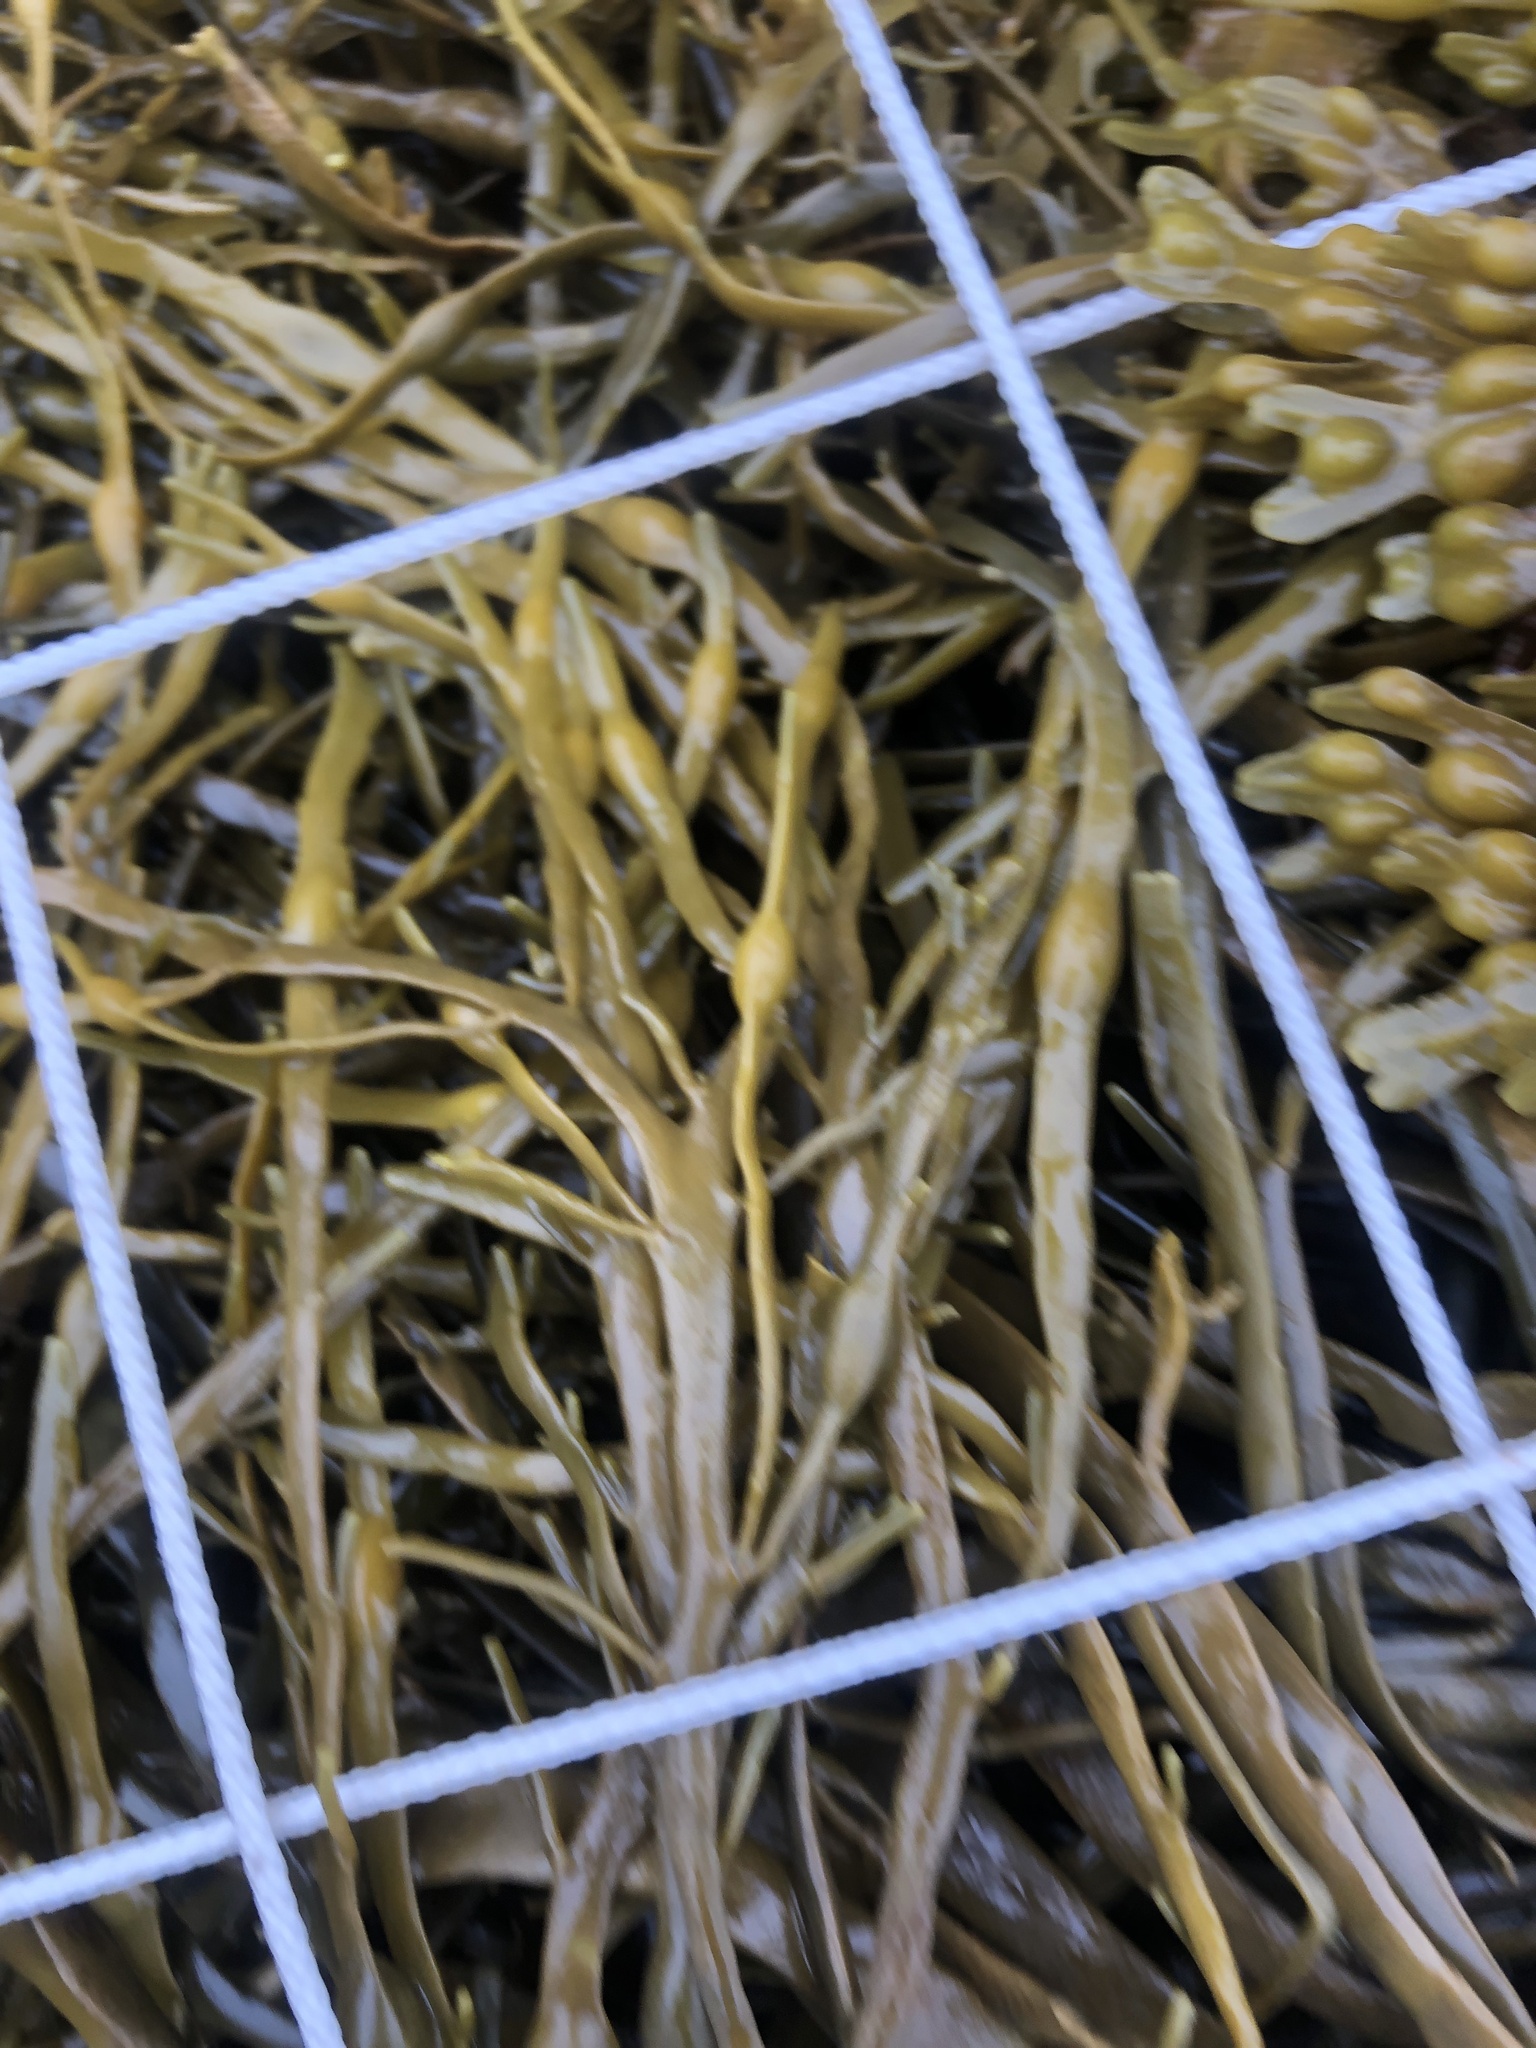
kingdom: Chromista
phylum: Ochrophyta
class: Phaeophyceae
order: Fucales
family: Fucaceae
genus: Fucus
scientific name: Fucus vesiculosus
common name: Bladder wrack
